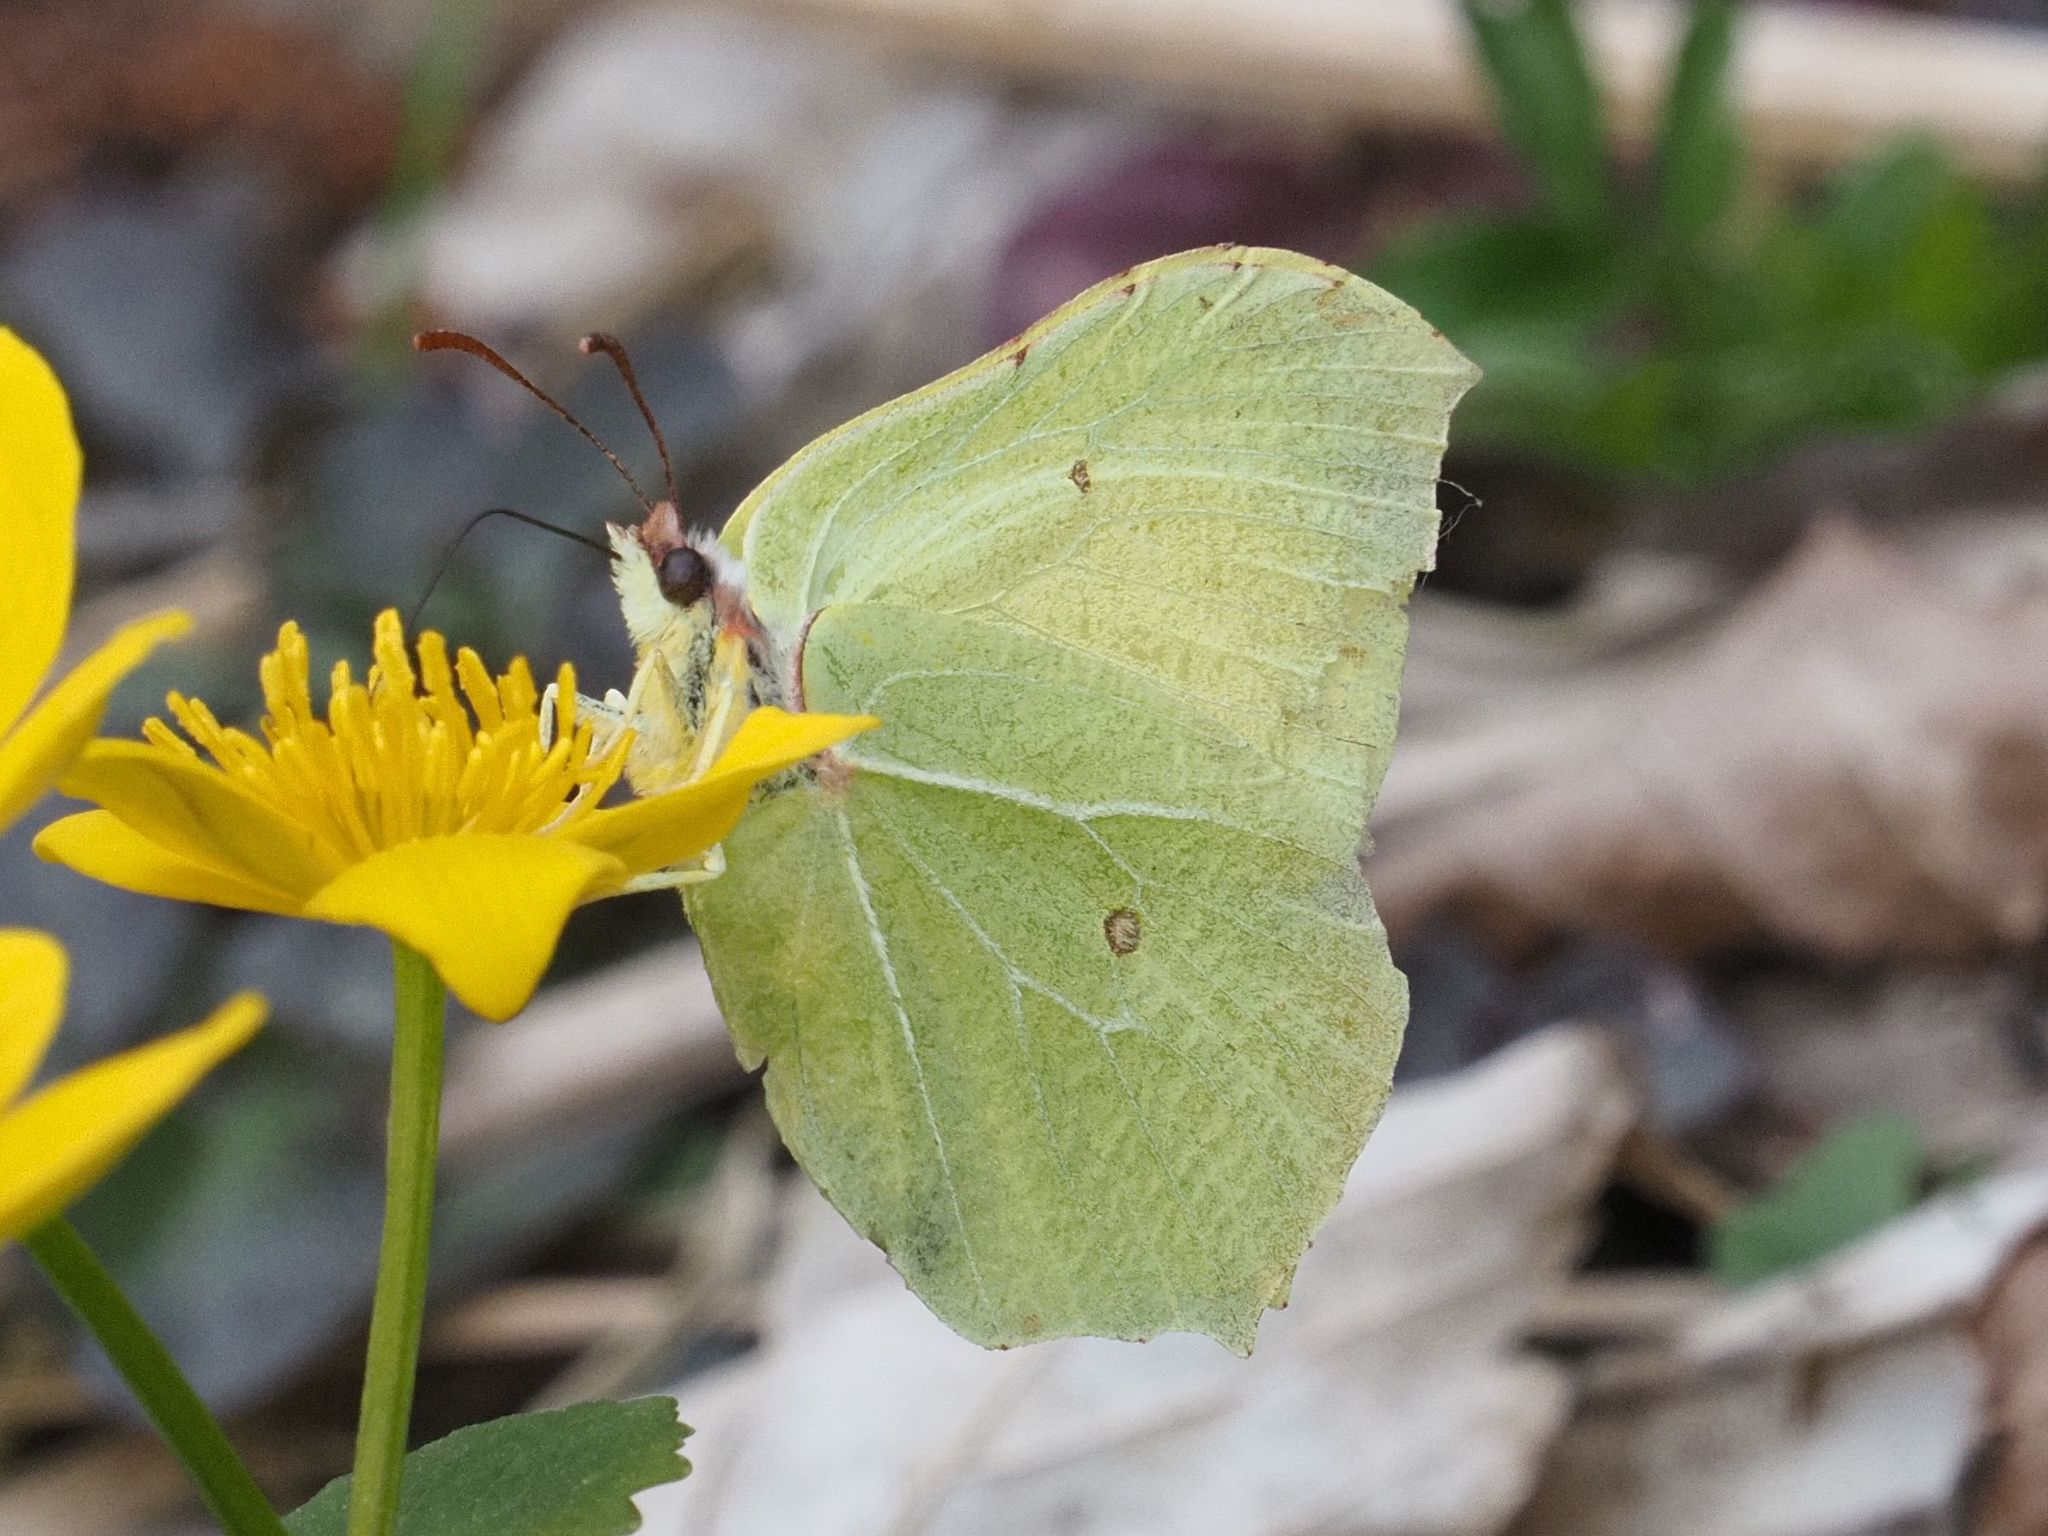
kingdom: Animalia
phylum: Arthropoda
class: Insecta
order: Lepidoptera
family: Pieridae
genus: Gonepteryx
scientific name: Gonepteryx rhamni
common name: Brimstone
